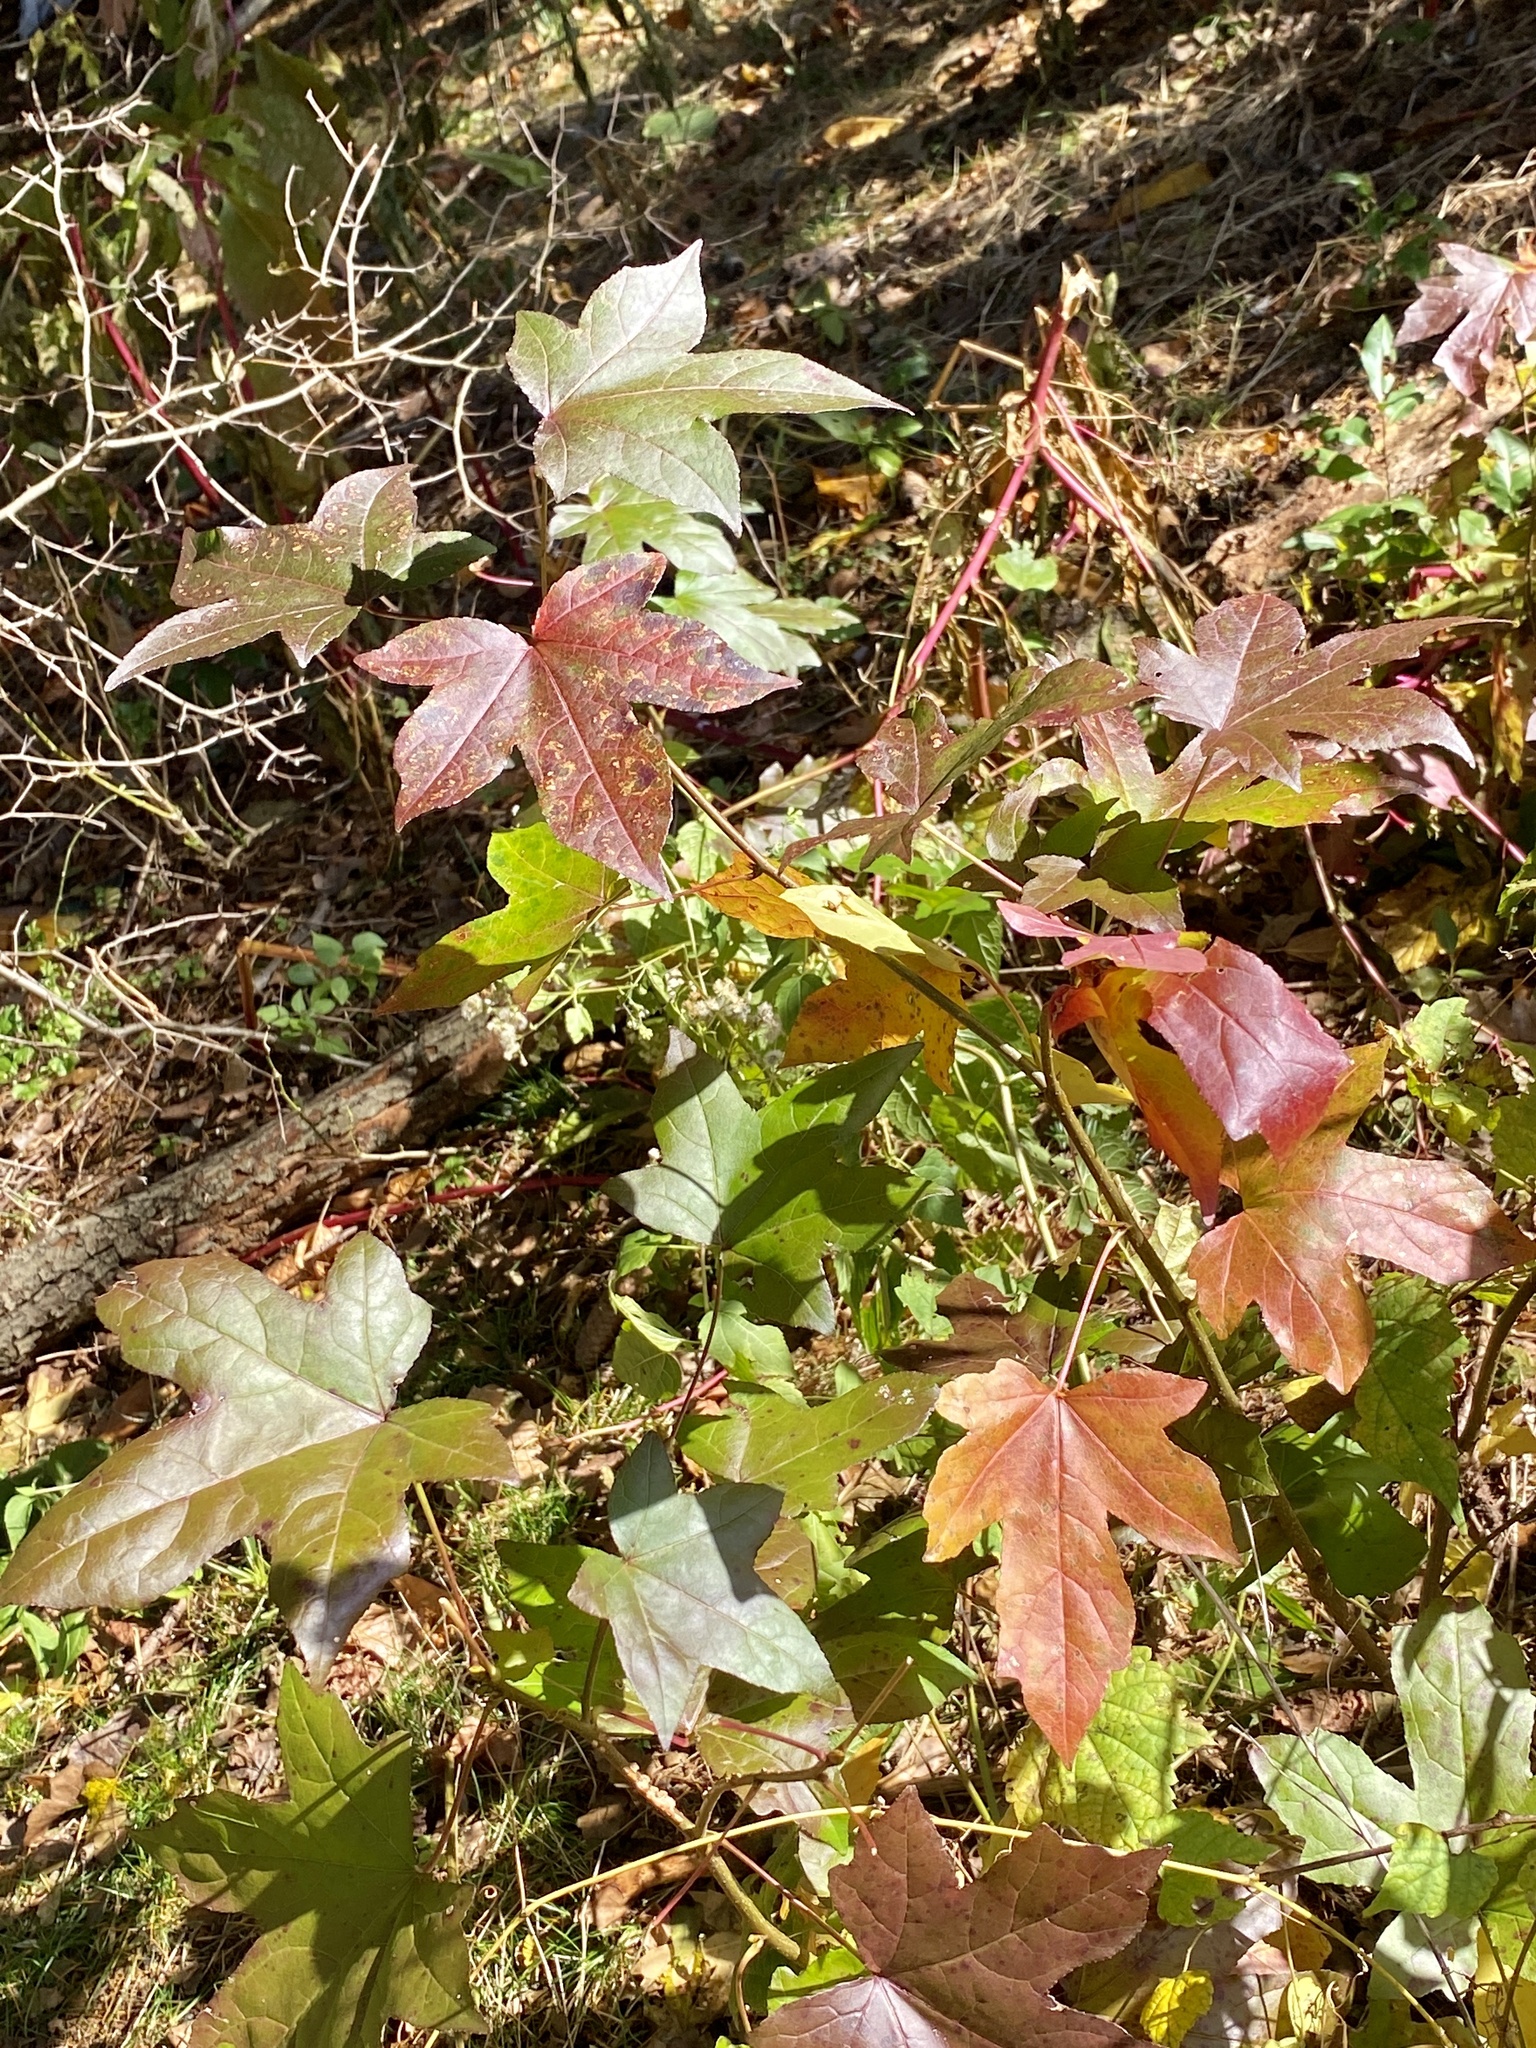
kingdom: Plantae
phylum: Tracheophyta
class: Magnoliopsida
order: Saxifragales
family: Altingiaceae
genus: Liquidambar
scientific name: Liquidambar styraciflua
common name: Sweet gum
